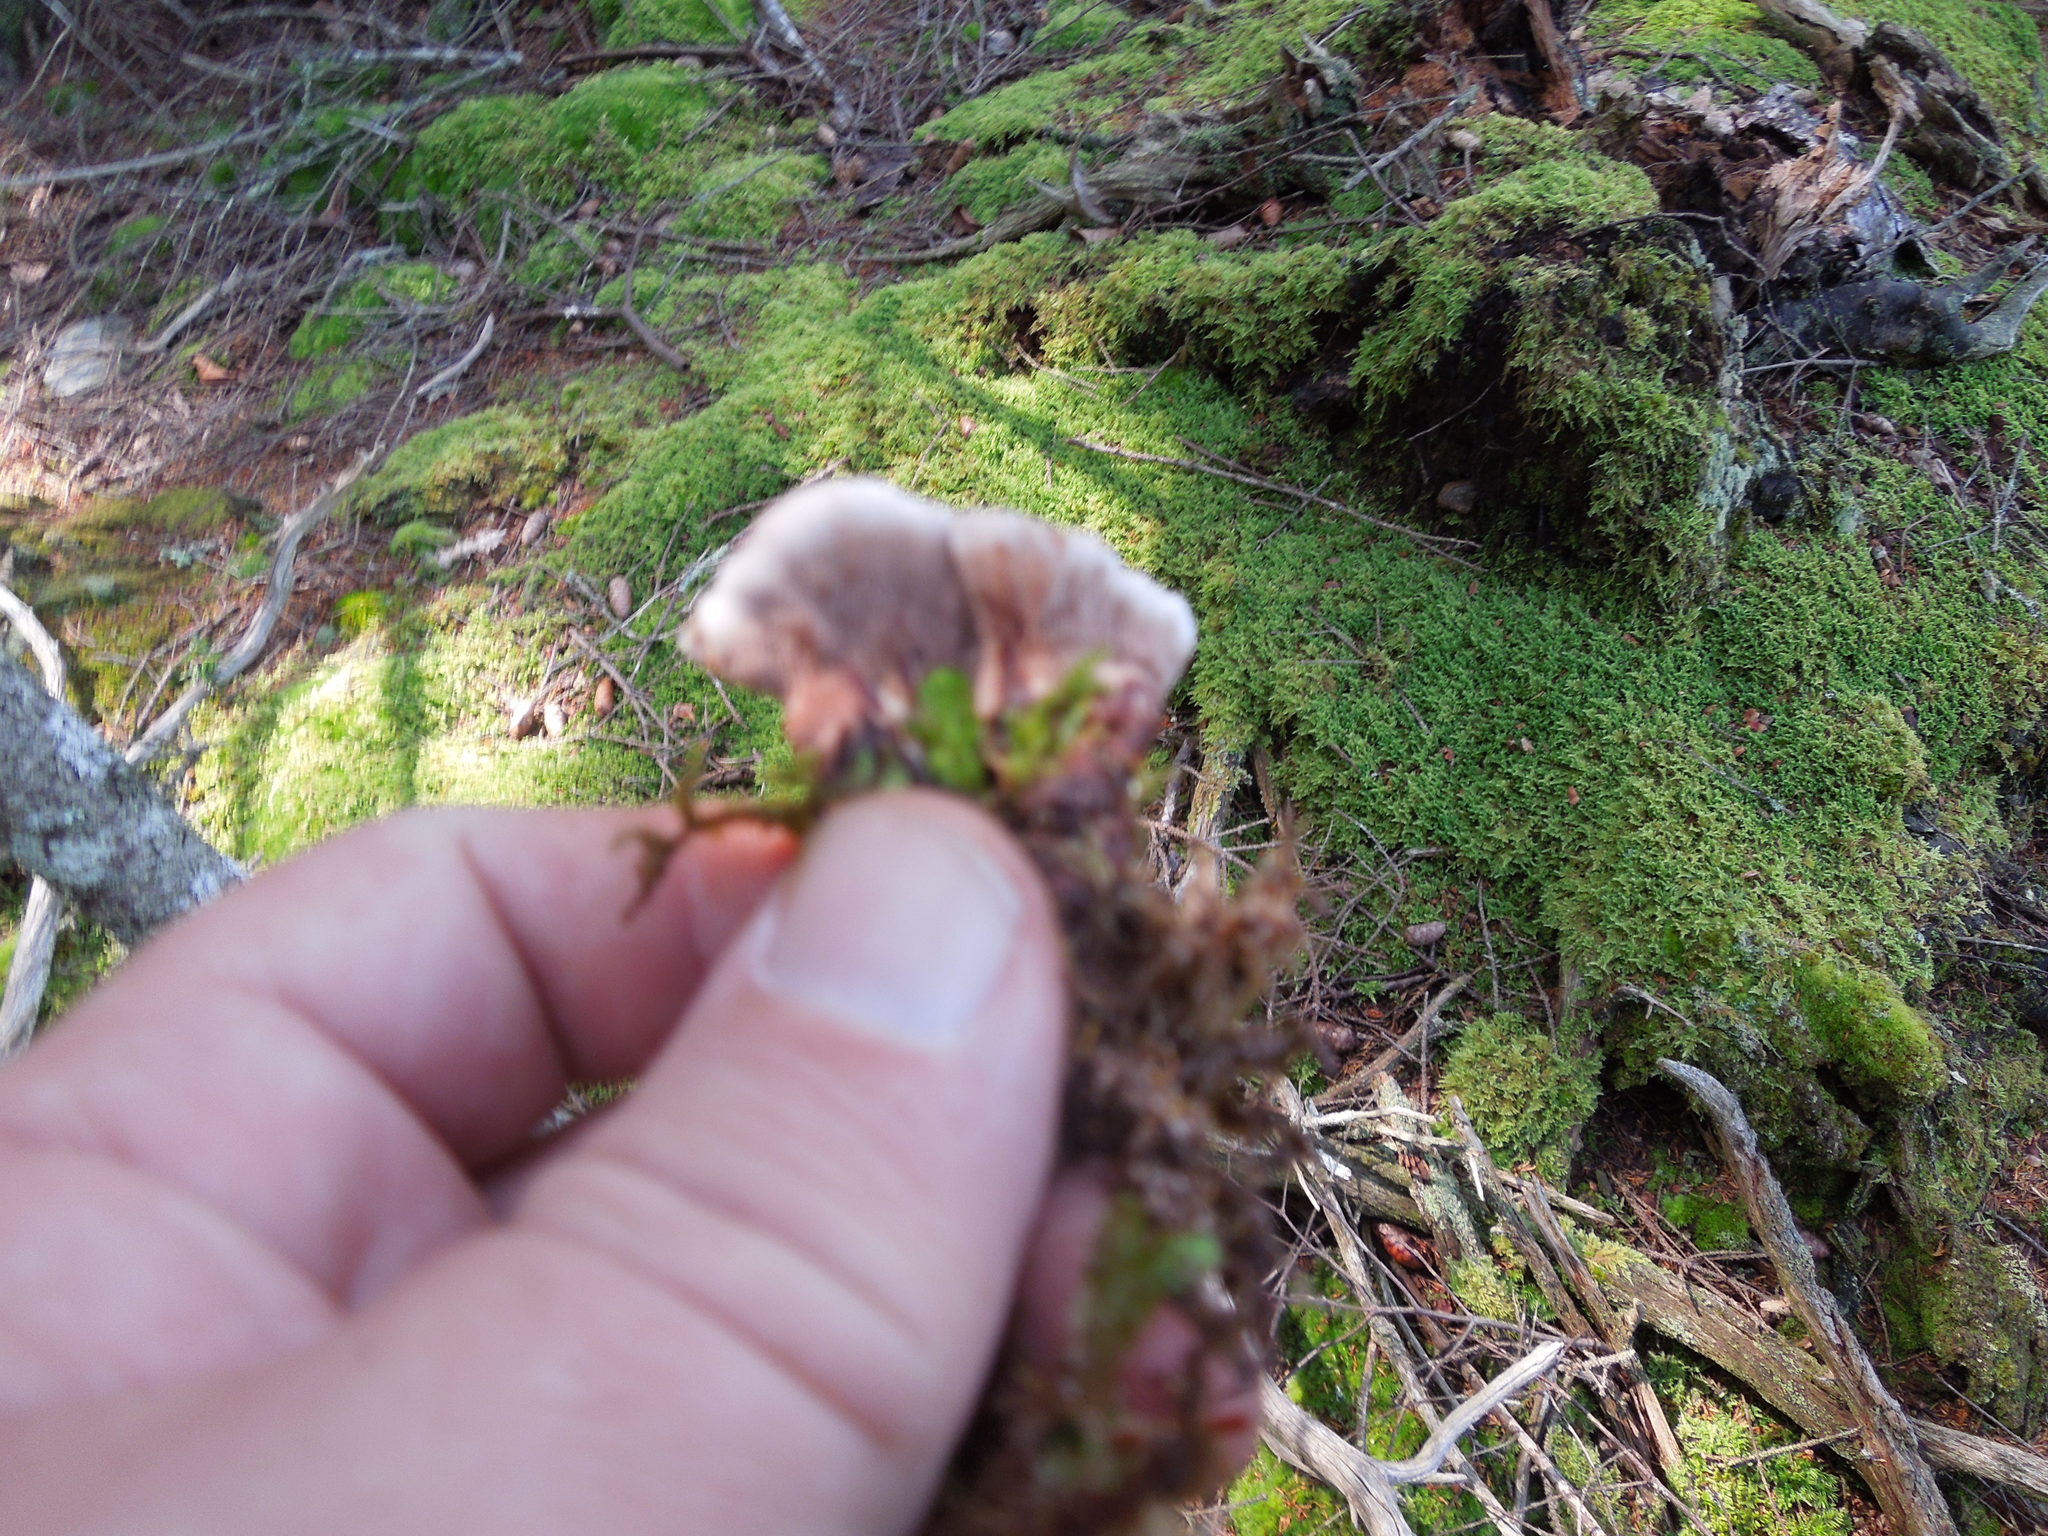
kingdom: Fungi
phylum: Basidiomycota
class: Agaricomycetes
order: Thelephorales
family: Bankeraceae
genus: Hydnellum
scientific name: Hydnellum
